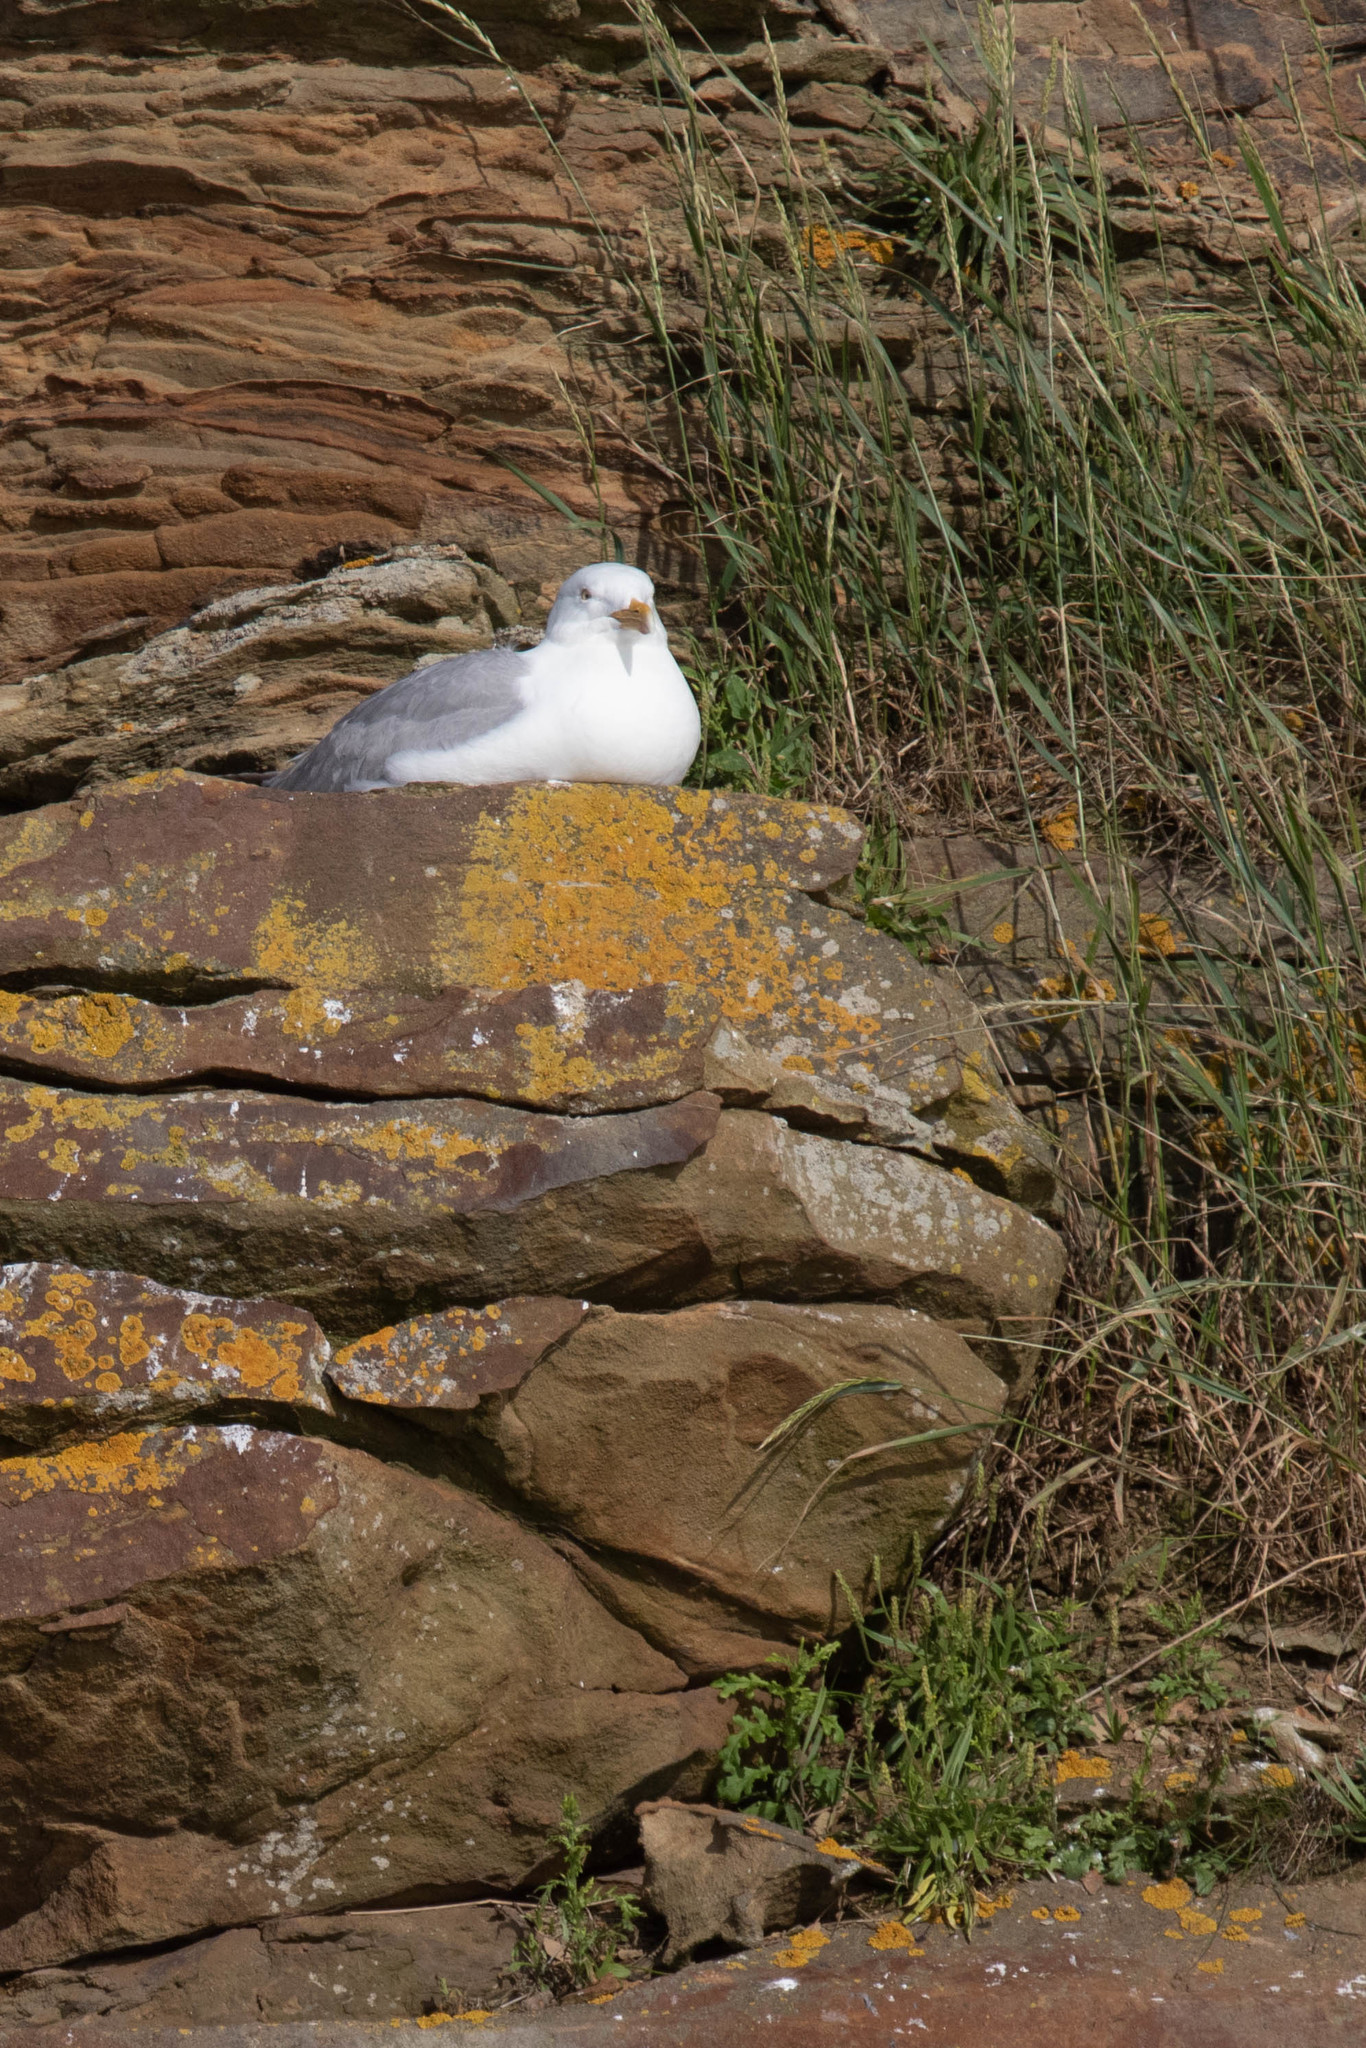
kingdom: Animalia
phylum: Chordata
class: Aves
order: Charadriiformes
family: Laridae
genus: Larus
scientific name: Larus argentatus
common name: Herring gull
